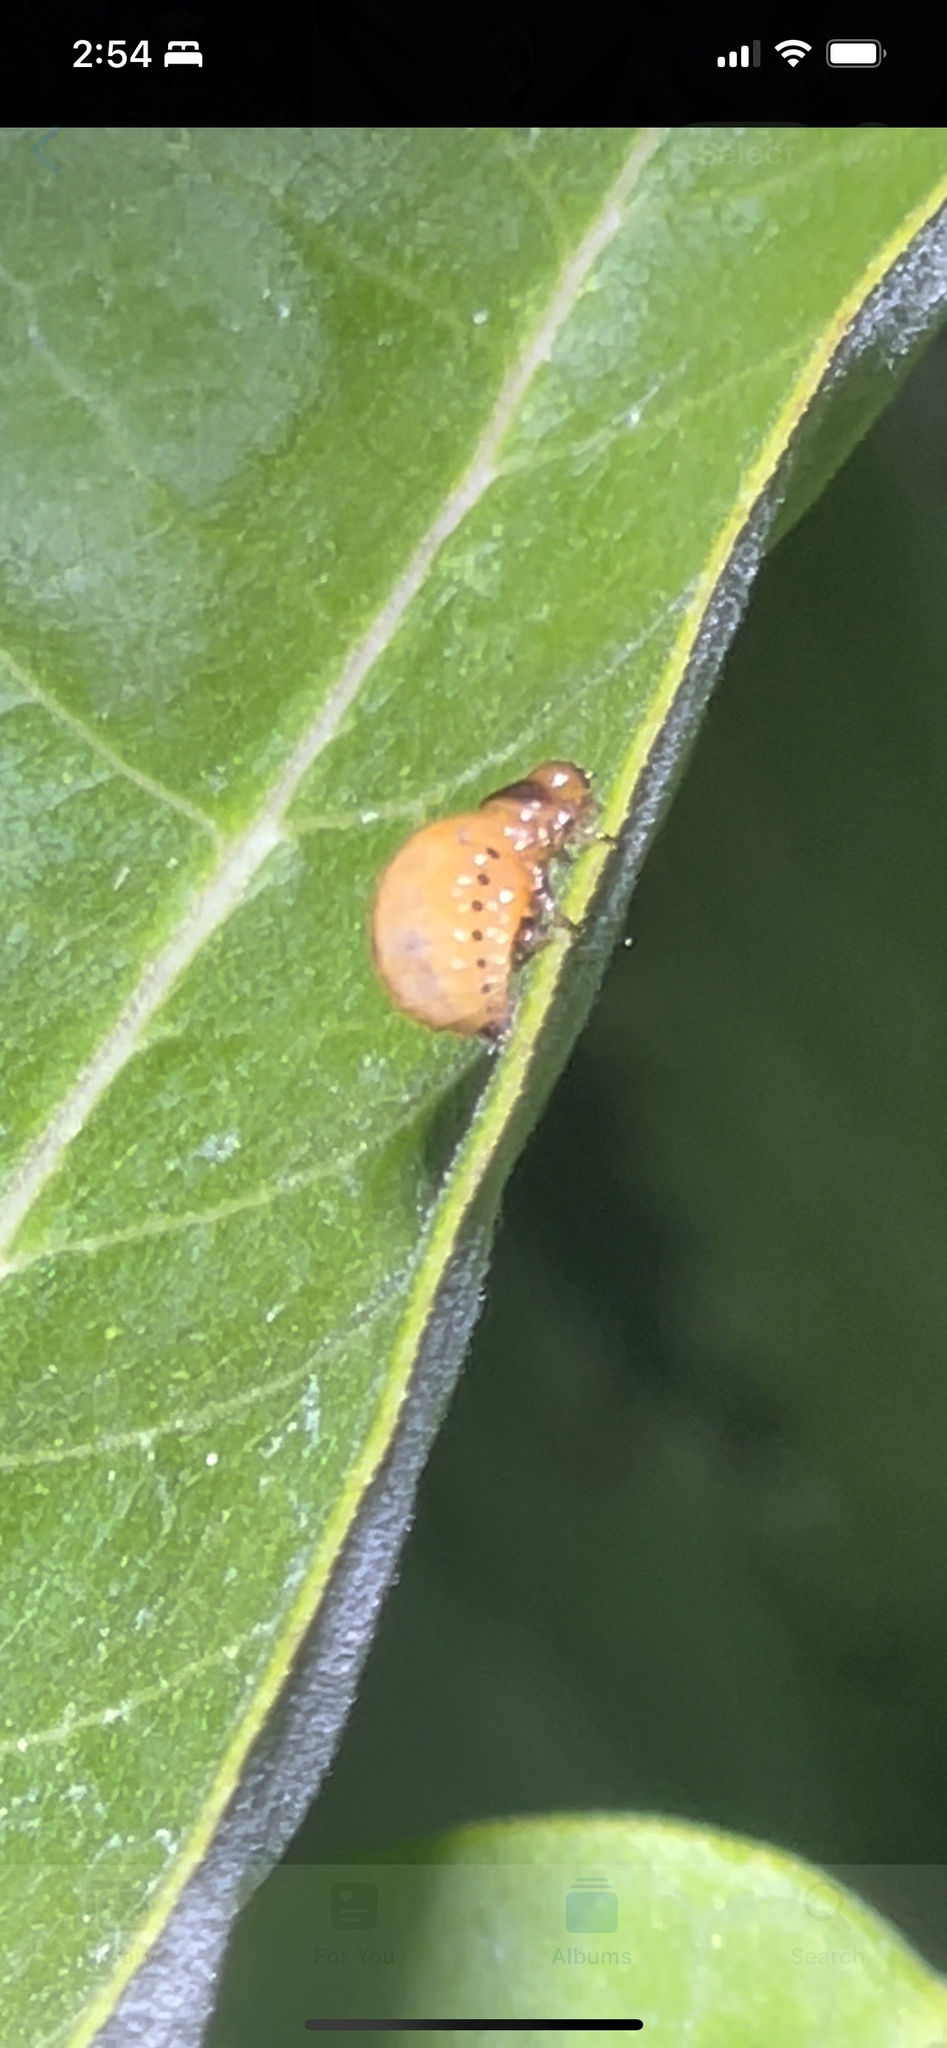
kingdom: Animalia
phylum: Arthropoda
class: Insecta
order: Coleoptera
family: Chrysomelidae
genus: Labidomera
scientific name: Labidomera clivicollis
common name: Swamp milkweed leaf beetle
